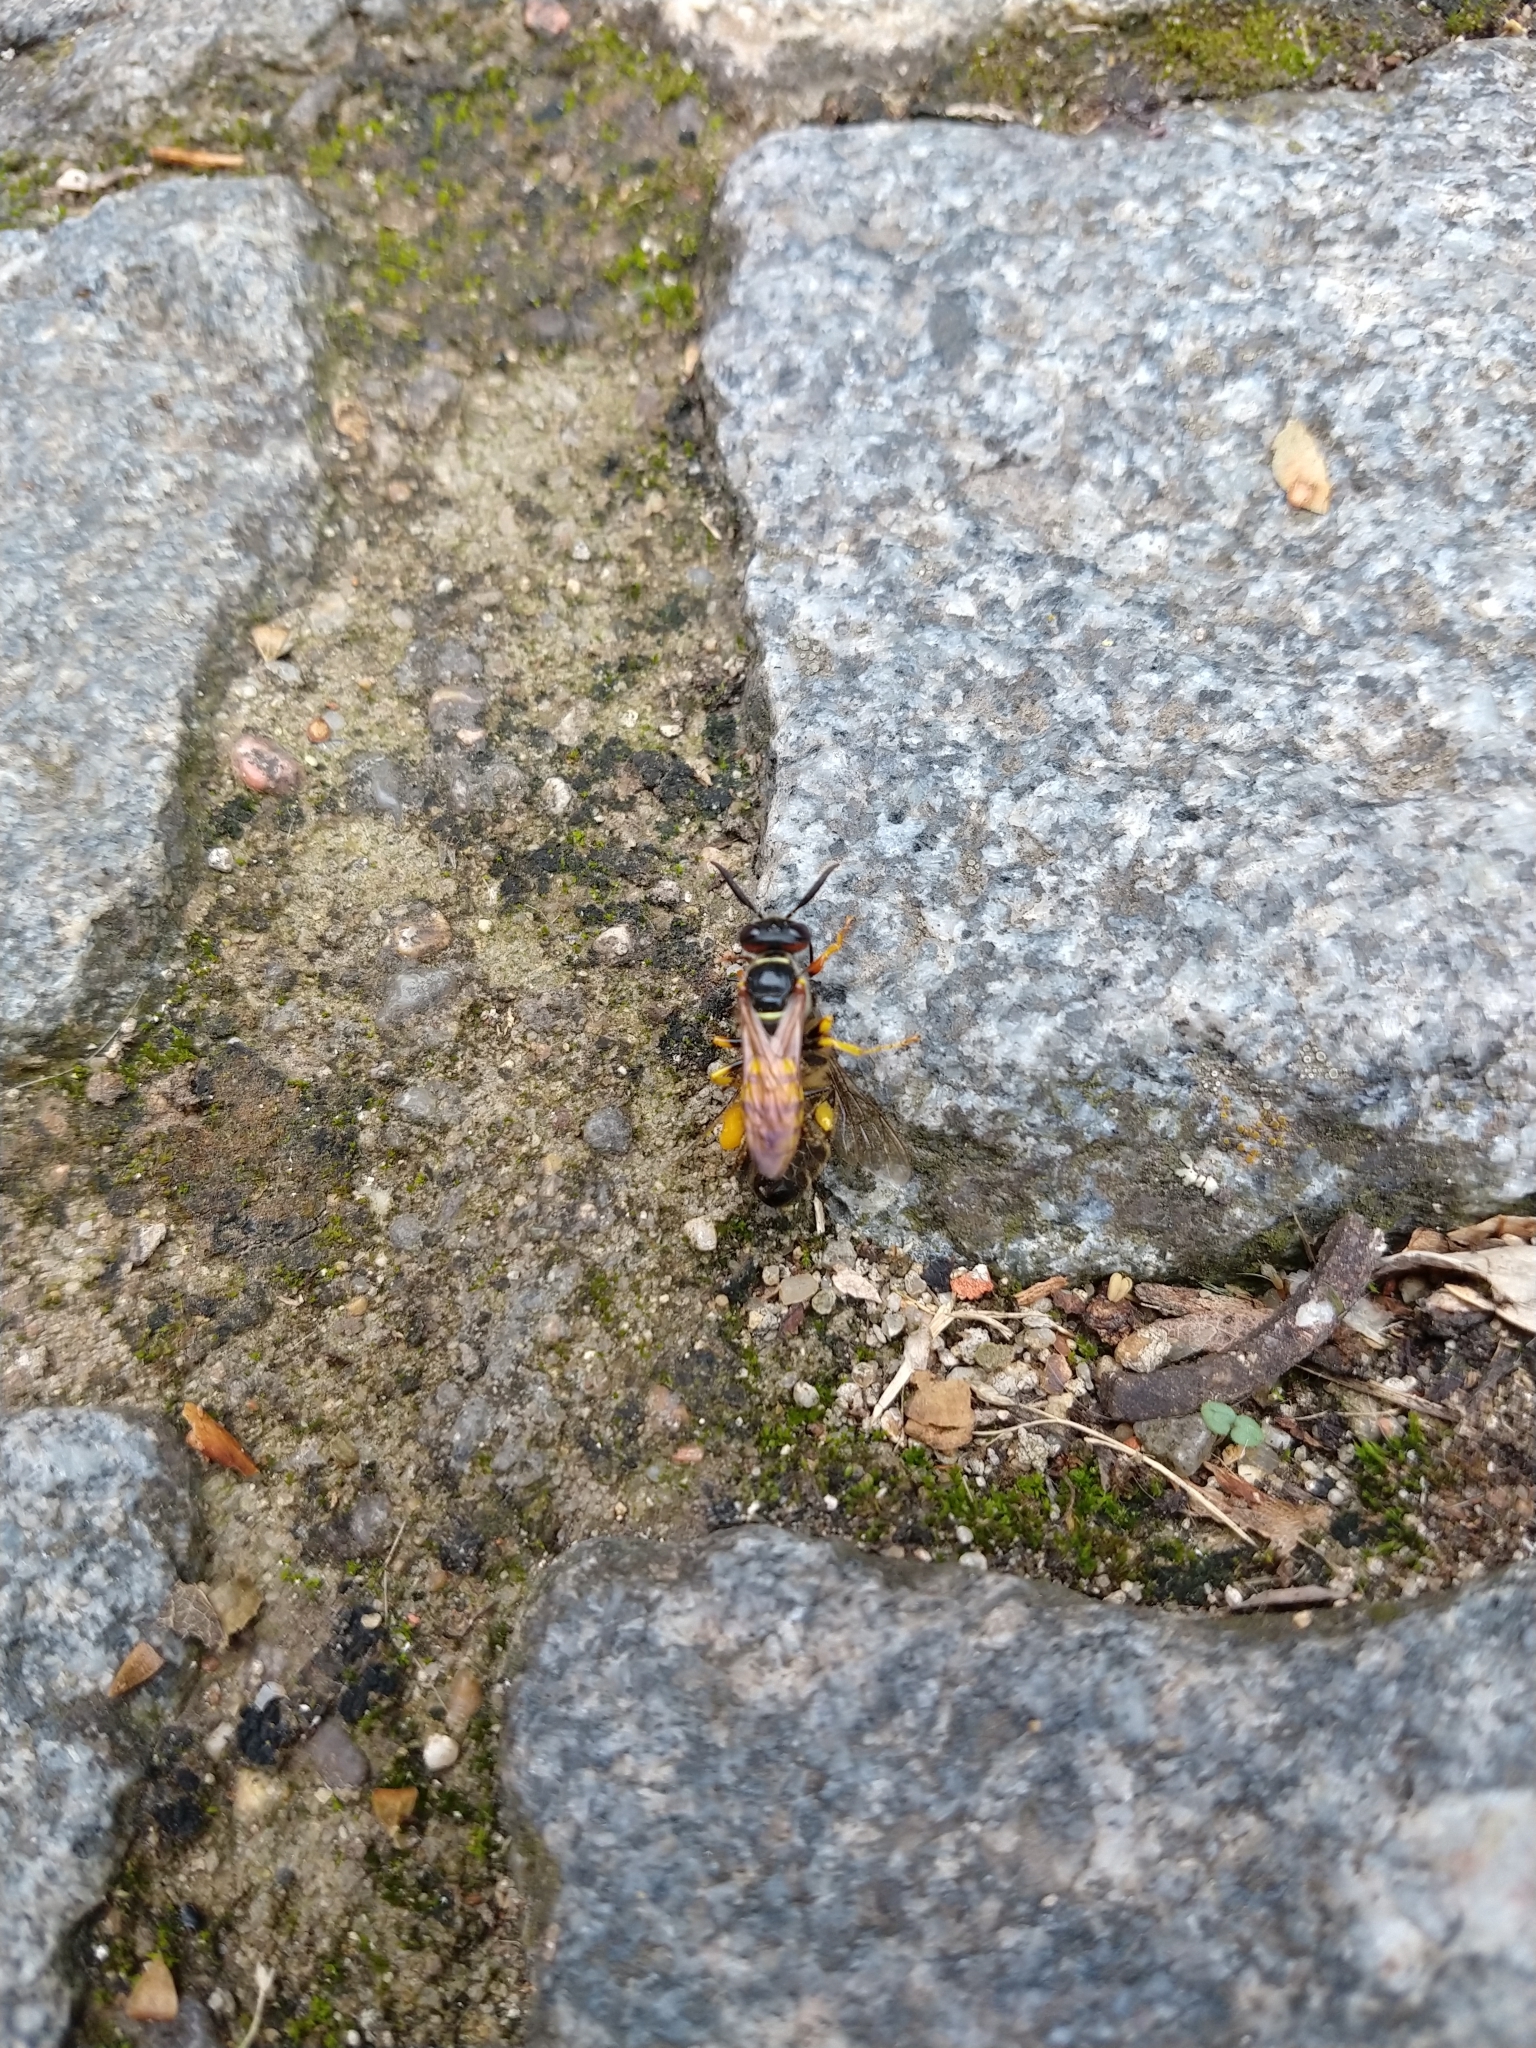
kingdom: Animalia
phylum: Arthropoda
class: Insecta
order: Hymenoptera
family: Crabronidae
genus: Philanthus
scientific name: Philanthus triangulum
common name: Bee wolf
